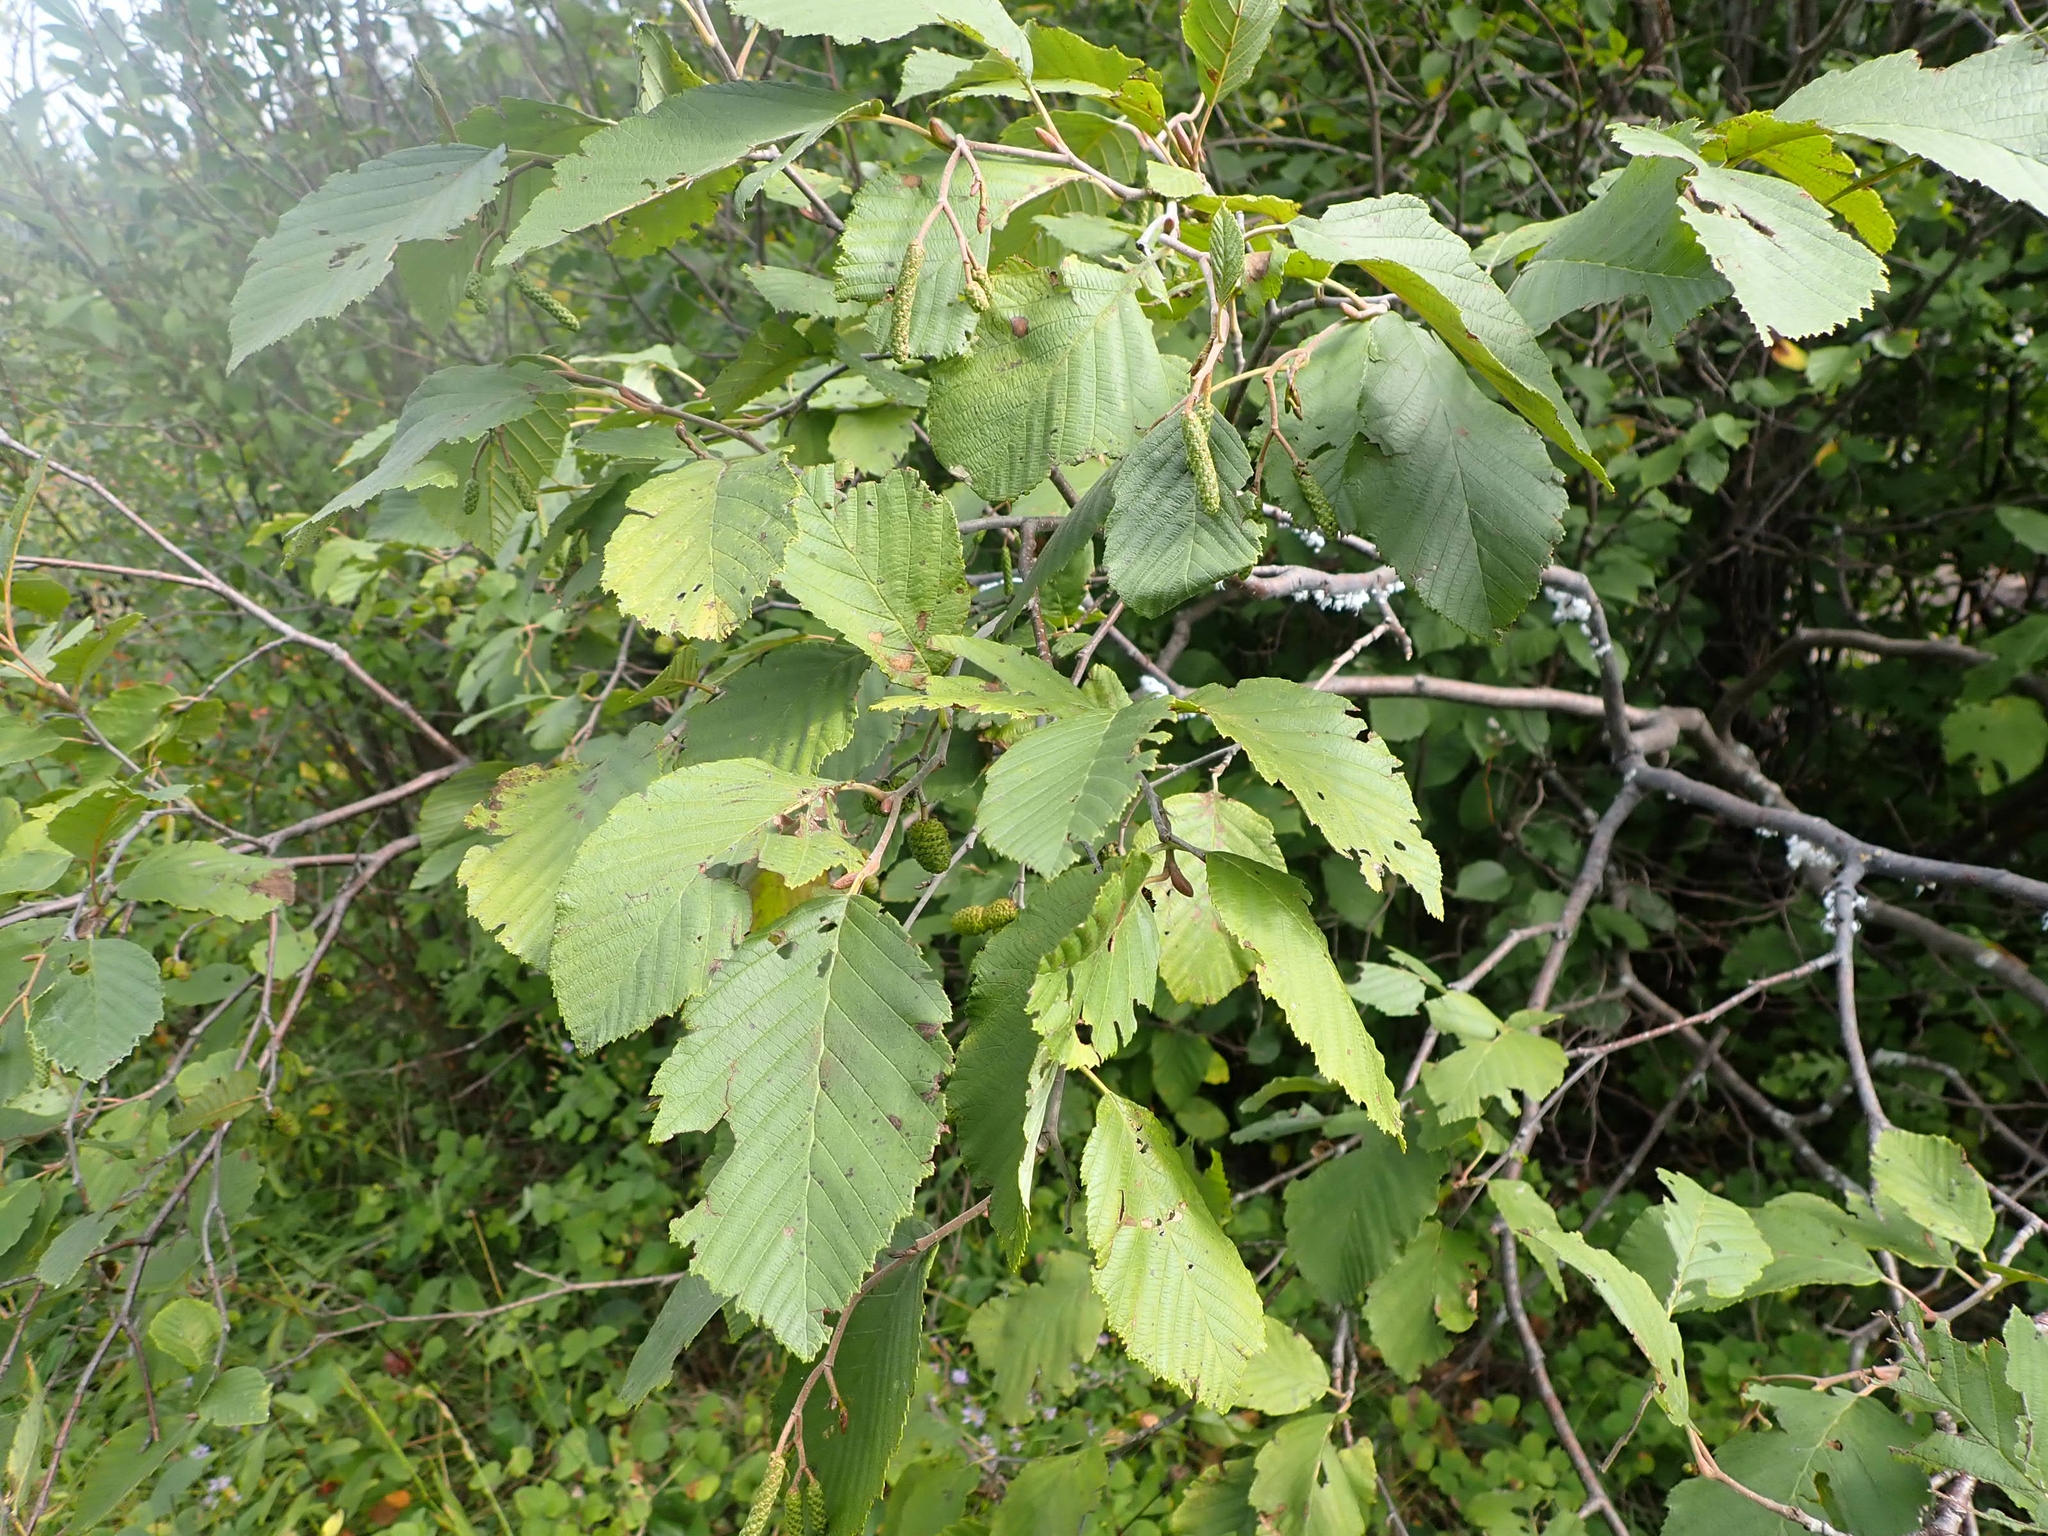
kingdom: Plantae
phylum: Tracheophyta
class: Magnoliopsida
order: Fagales
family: Betulaceae
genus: Alnus
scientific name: Alnus incana
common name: Grey alder
